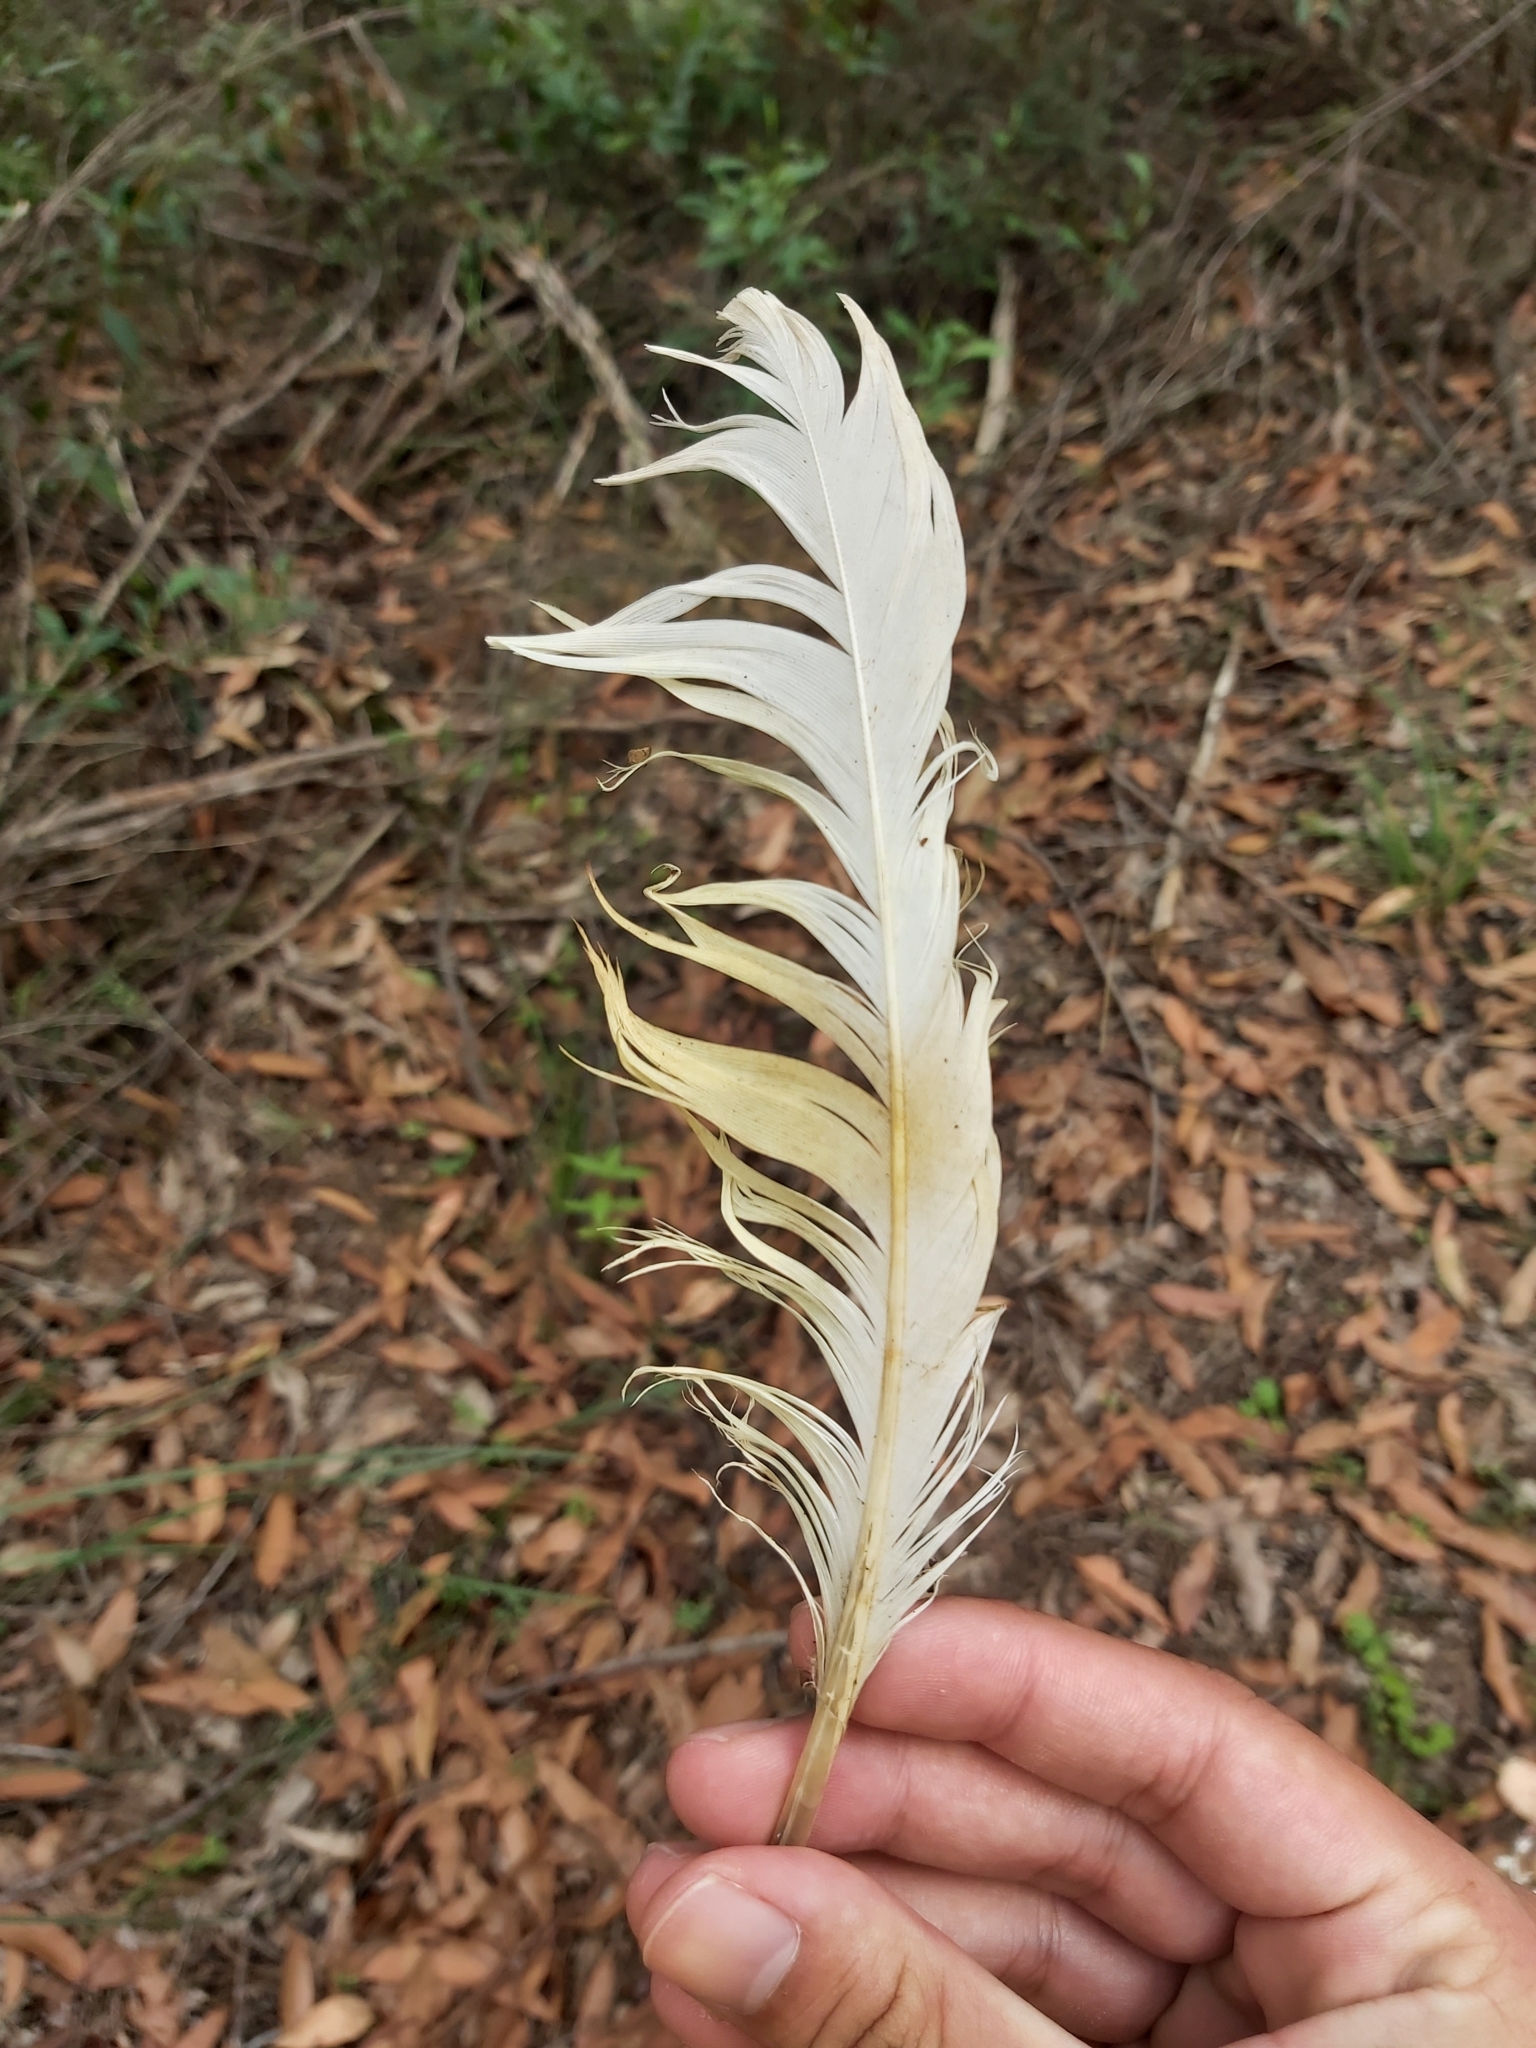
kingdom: Animalia
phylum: Chordata
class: Aves
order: Psittaciformes
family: Psittacidae
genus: Cacatua
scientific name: Cacatua galerita
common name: Sulphur-crested cockatoo
